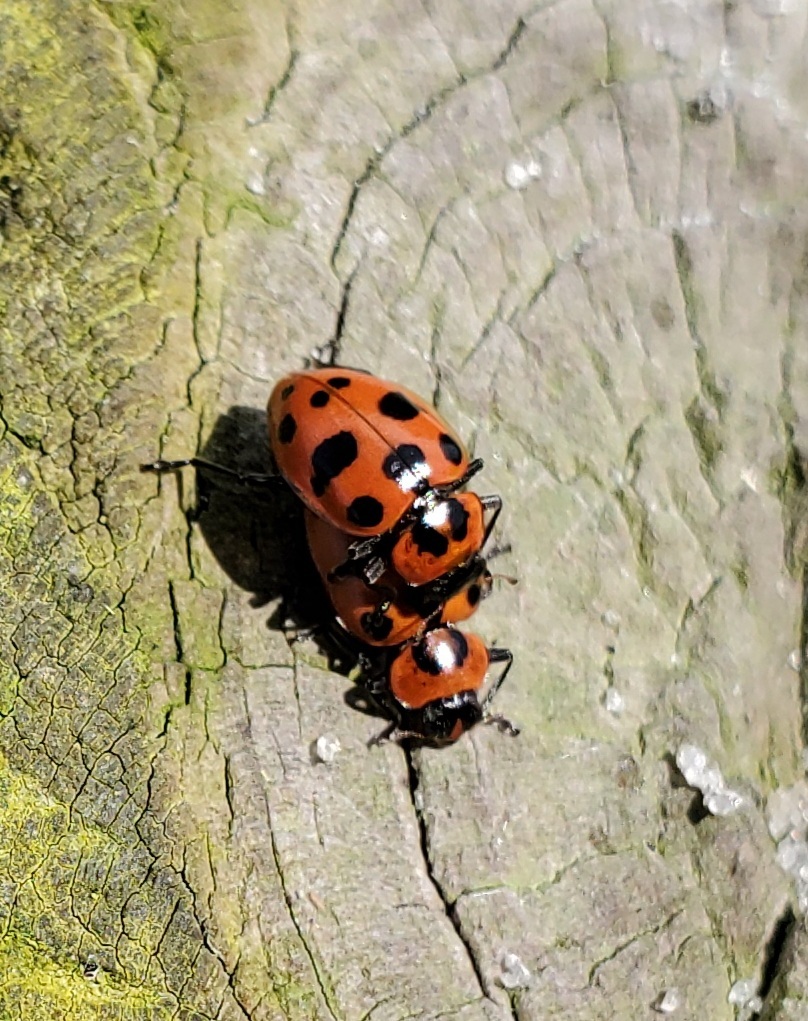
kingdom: Animalia
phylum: Arthropoda
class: Insecta
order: Coleoptera
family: Coccinellidae
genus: Coleomegilla
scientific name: Coleomegilla maculata
